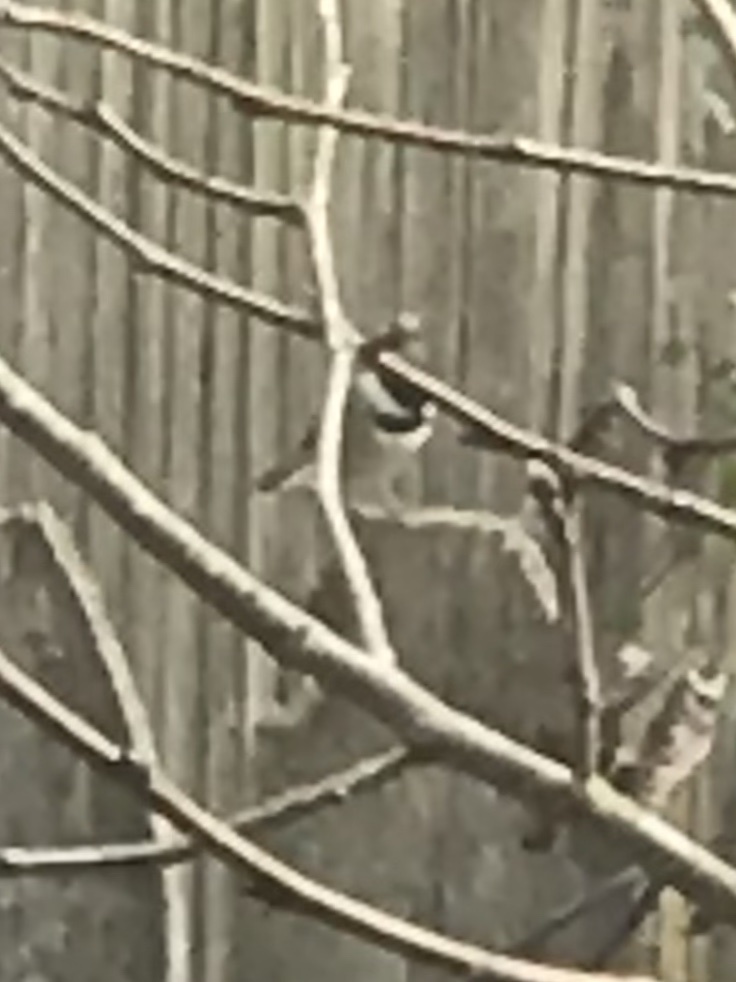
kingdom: Animalia
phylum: Chordata
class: Aves
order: Passeriformes
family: Paridae
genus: Poecile
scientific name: Poecile carolinensis
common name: Carolina chickadee
